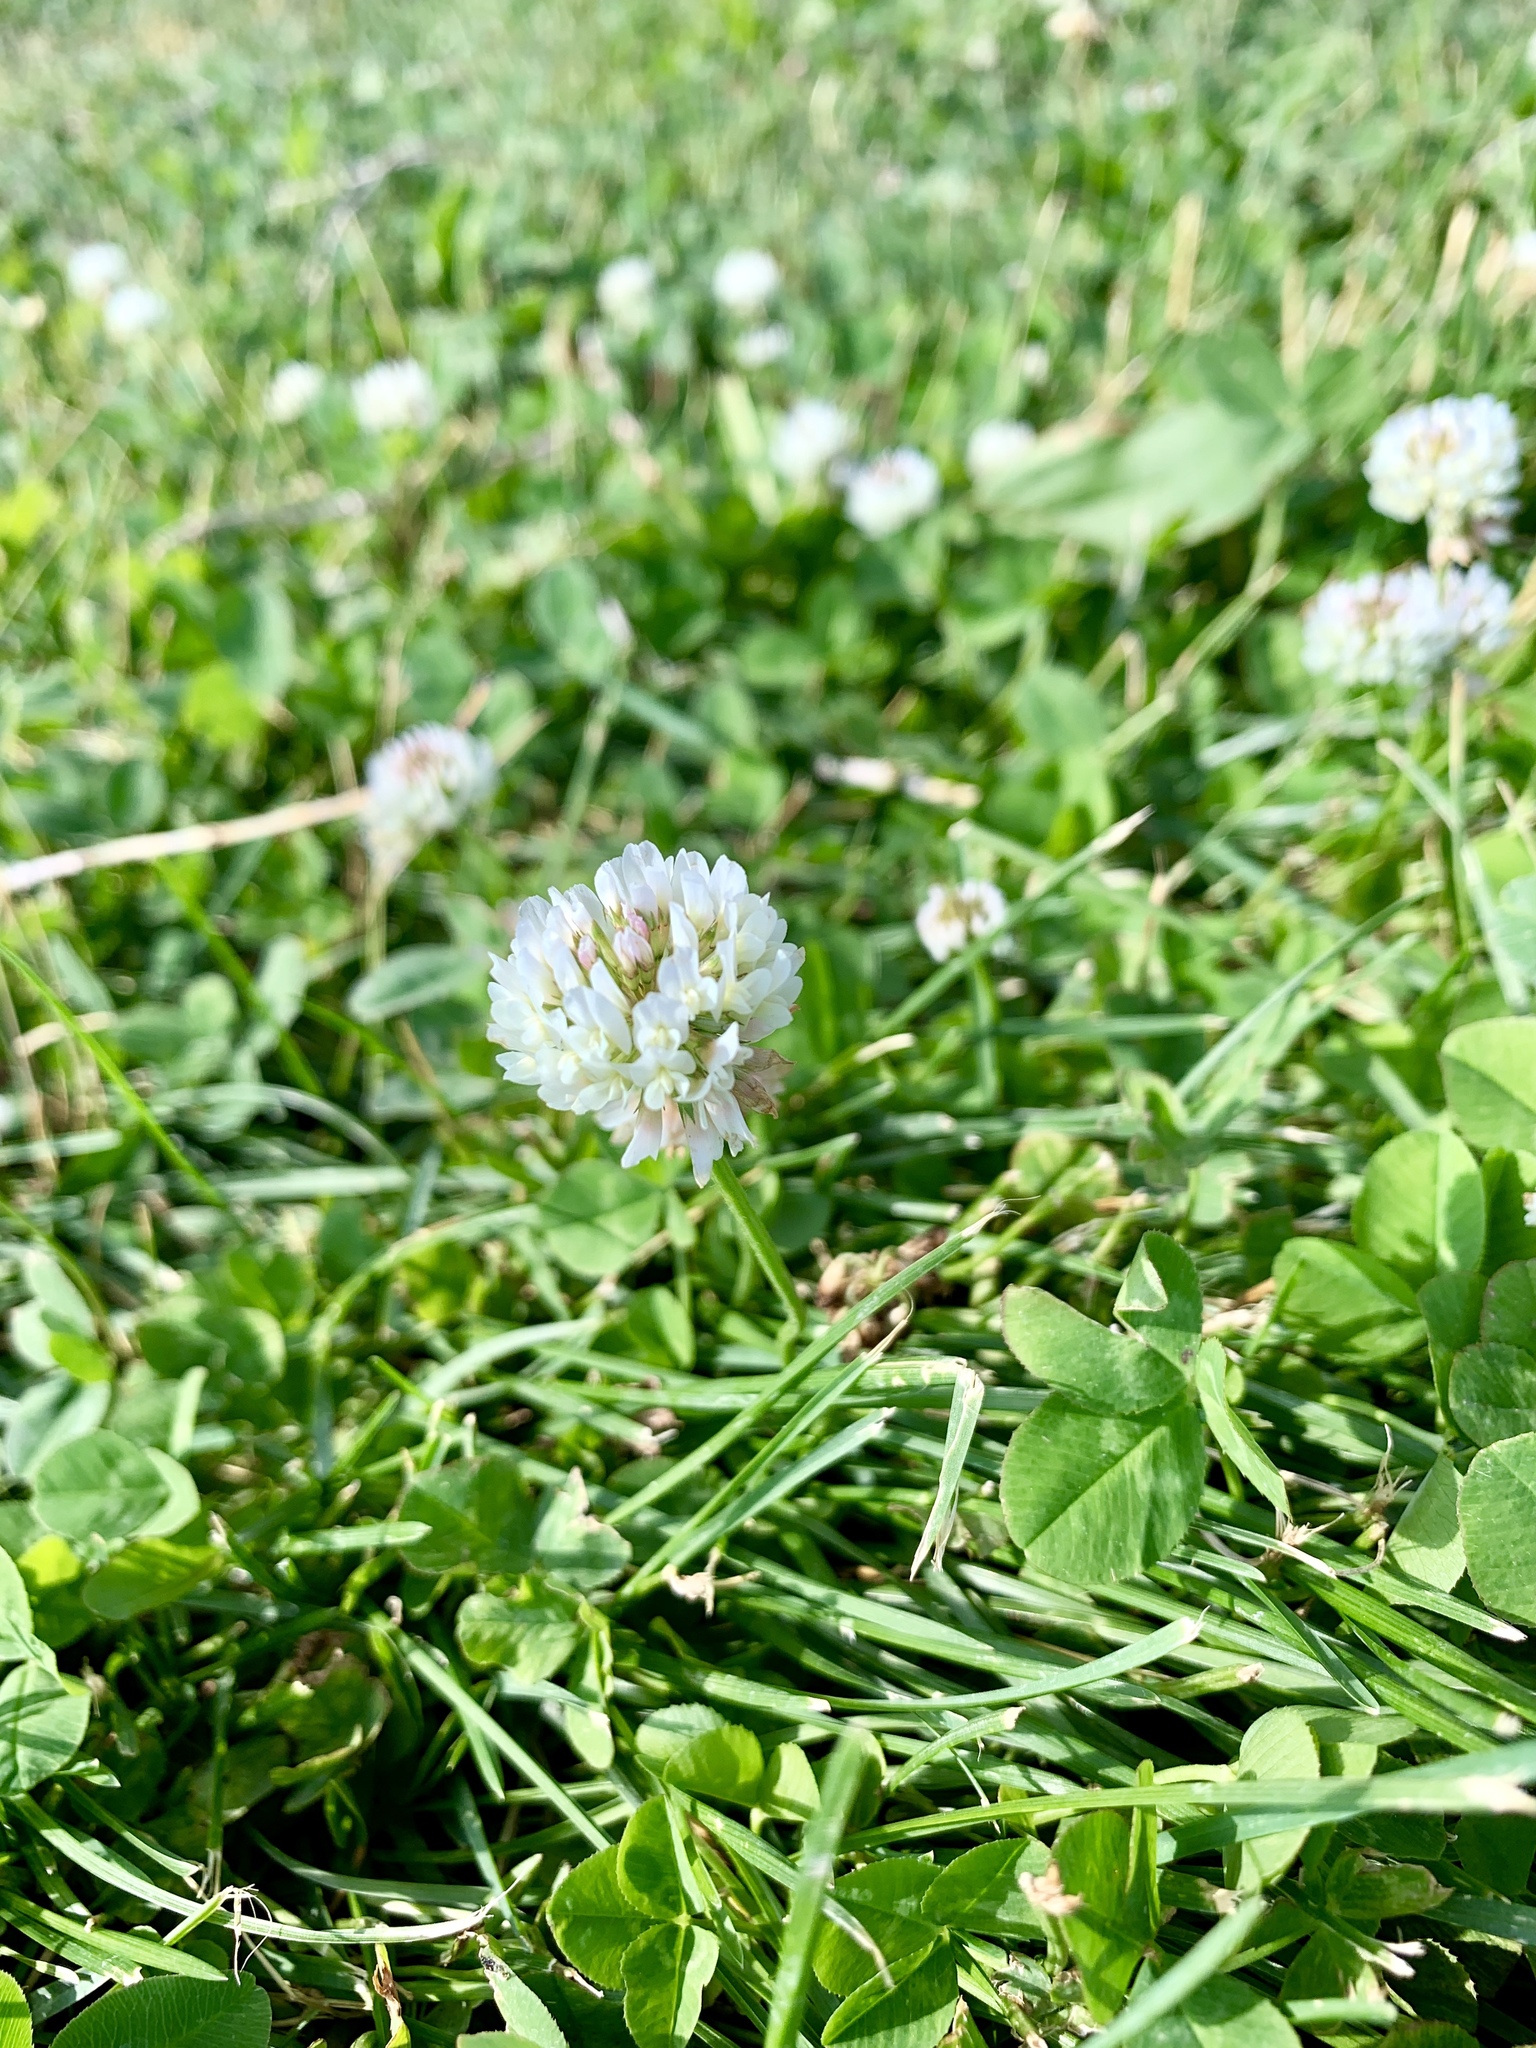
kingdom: Plantae
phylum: Tracheophyta
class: Magnoliopsida
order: Fabales
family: Fabaceae
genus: Trifolium
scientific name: Trifolium repens
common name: White clover
